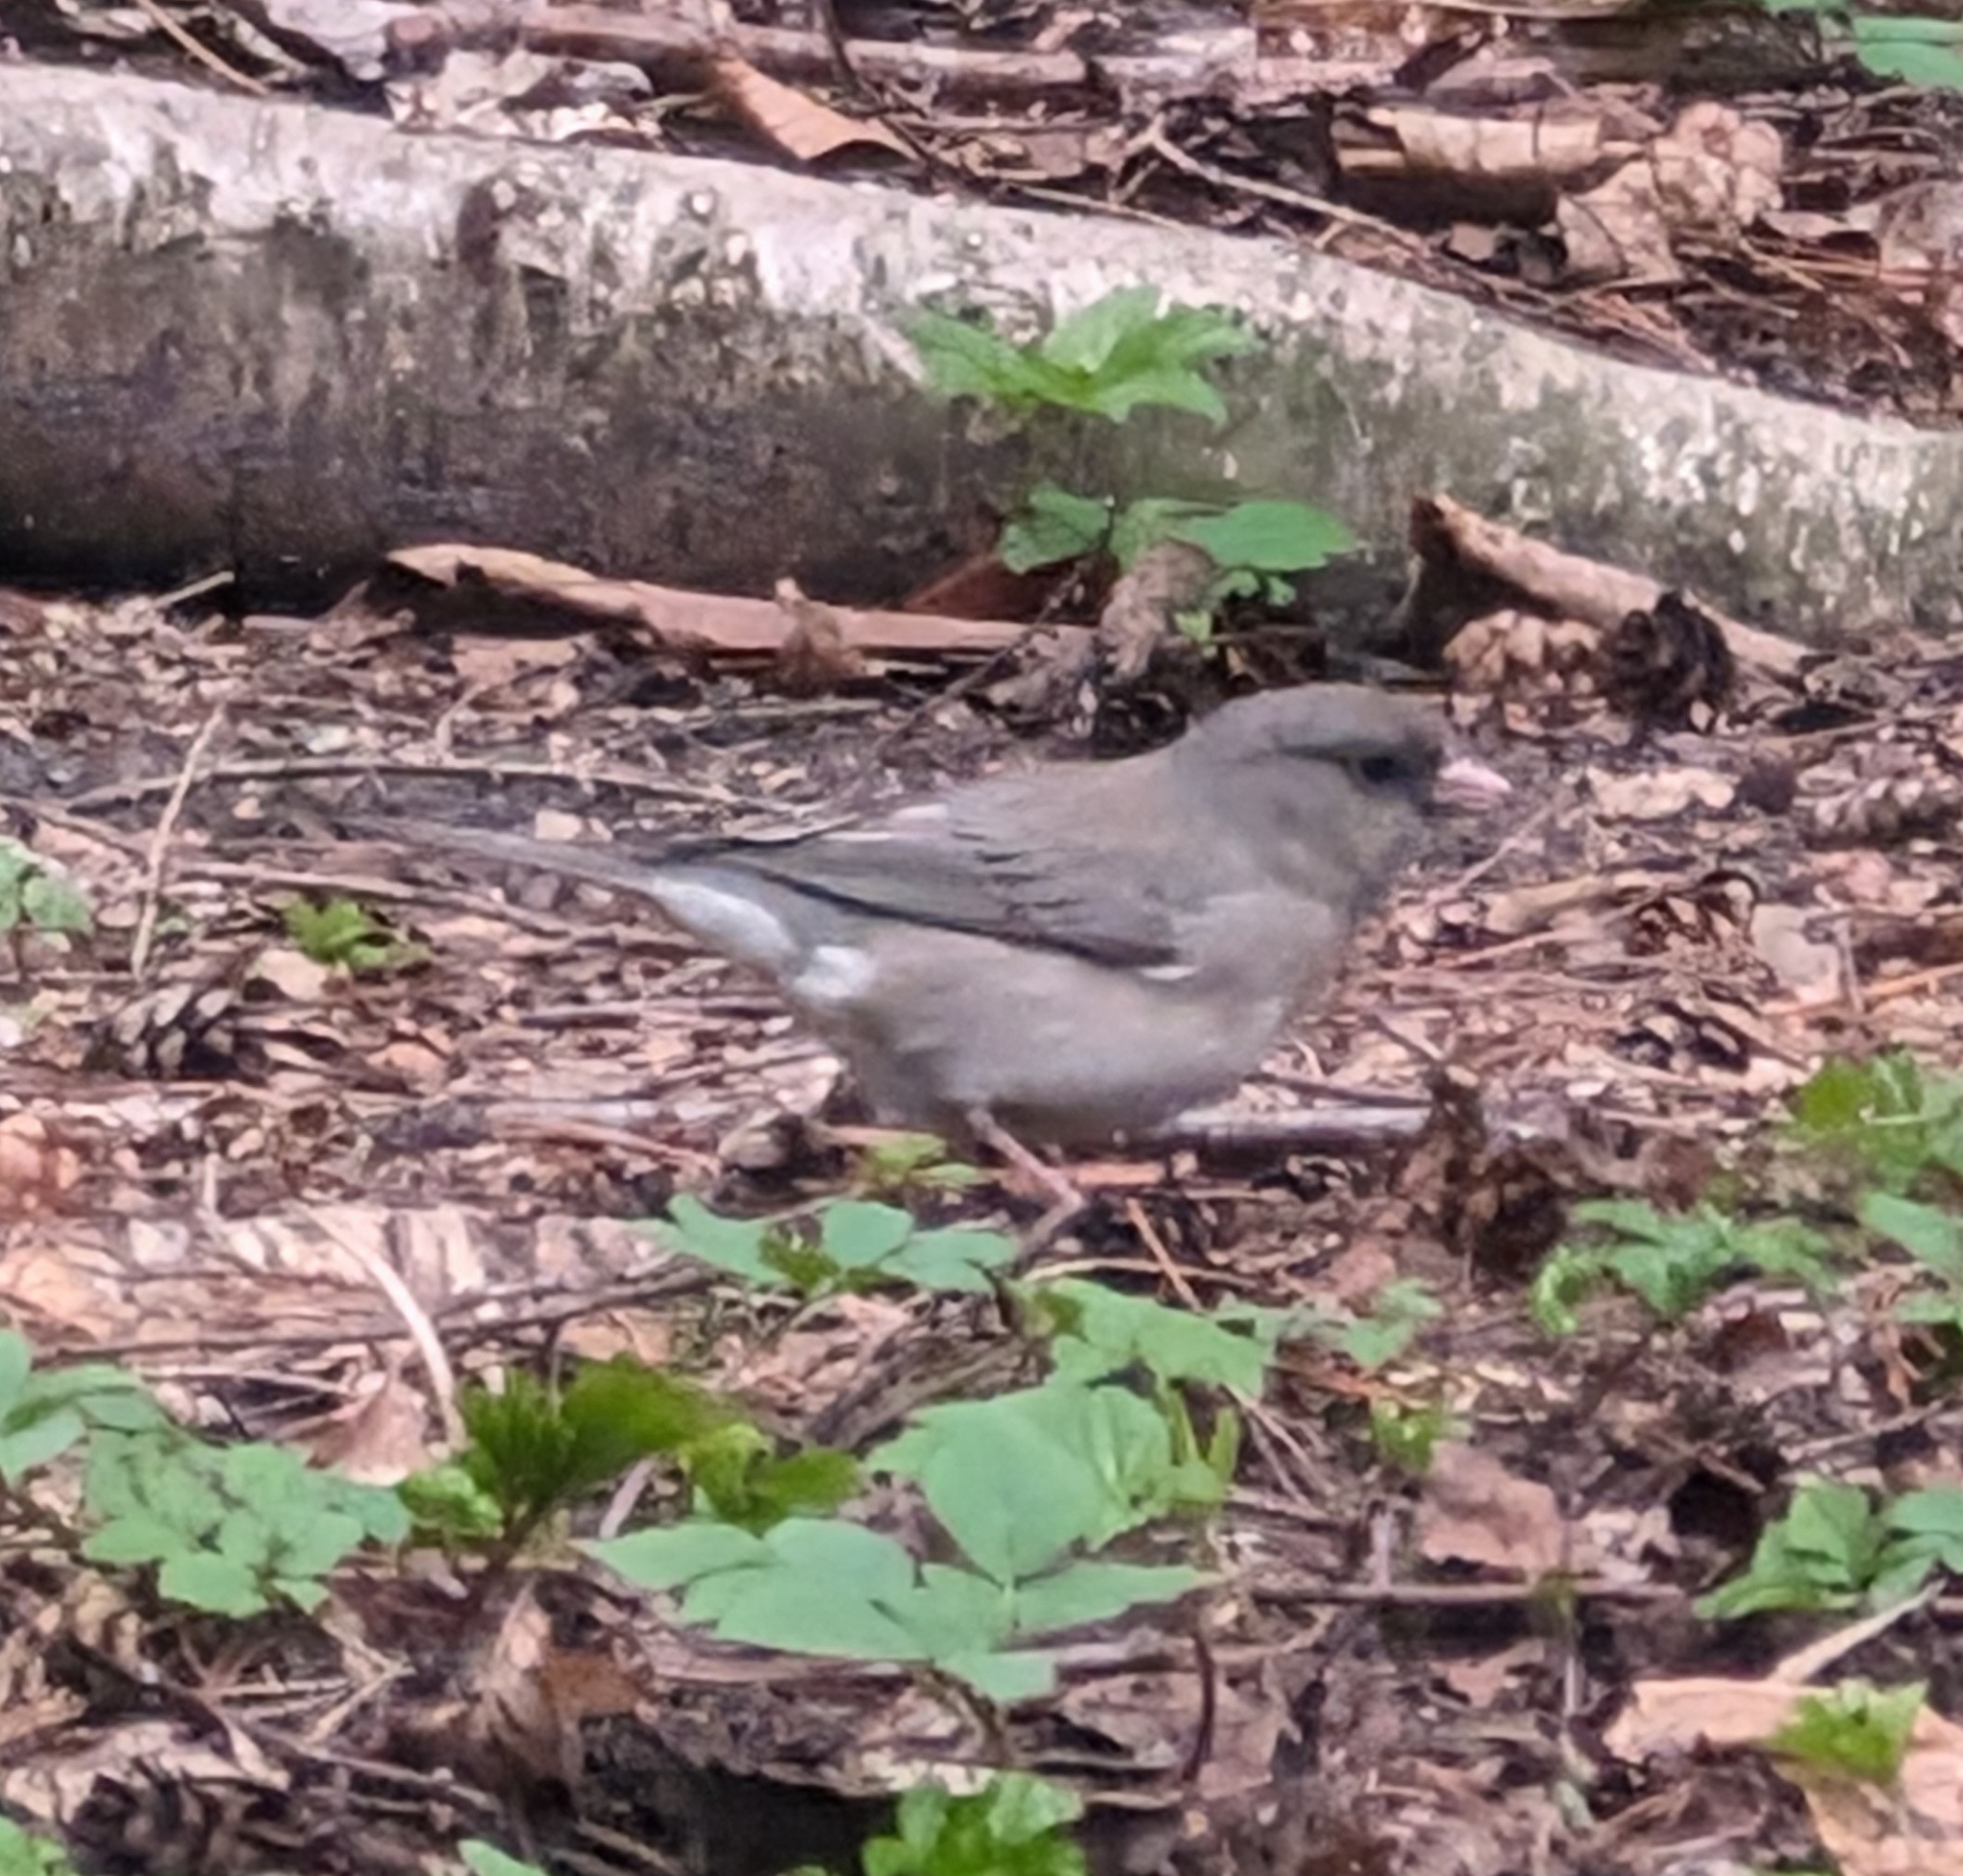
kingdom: Animalia
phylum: Chordata
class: Aves
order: Passeriformes
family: Passerellidae
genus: Junco
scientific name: Junco hyemalis
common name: Dark-eyed junco
